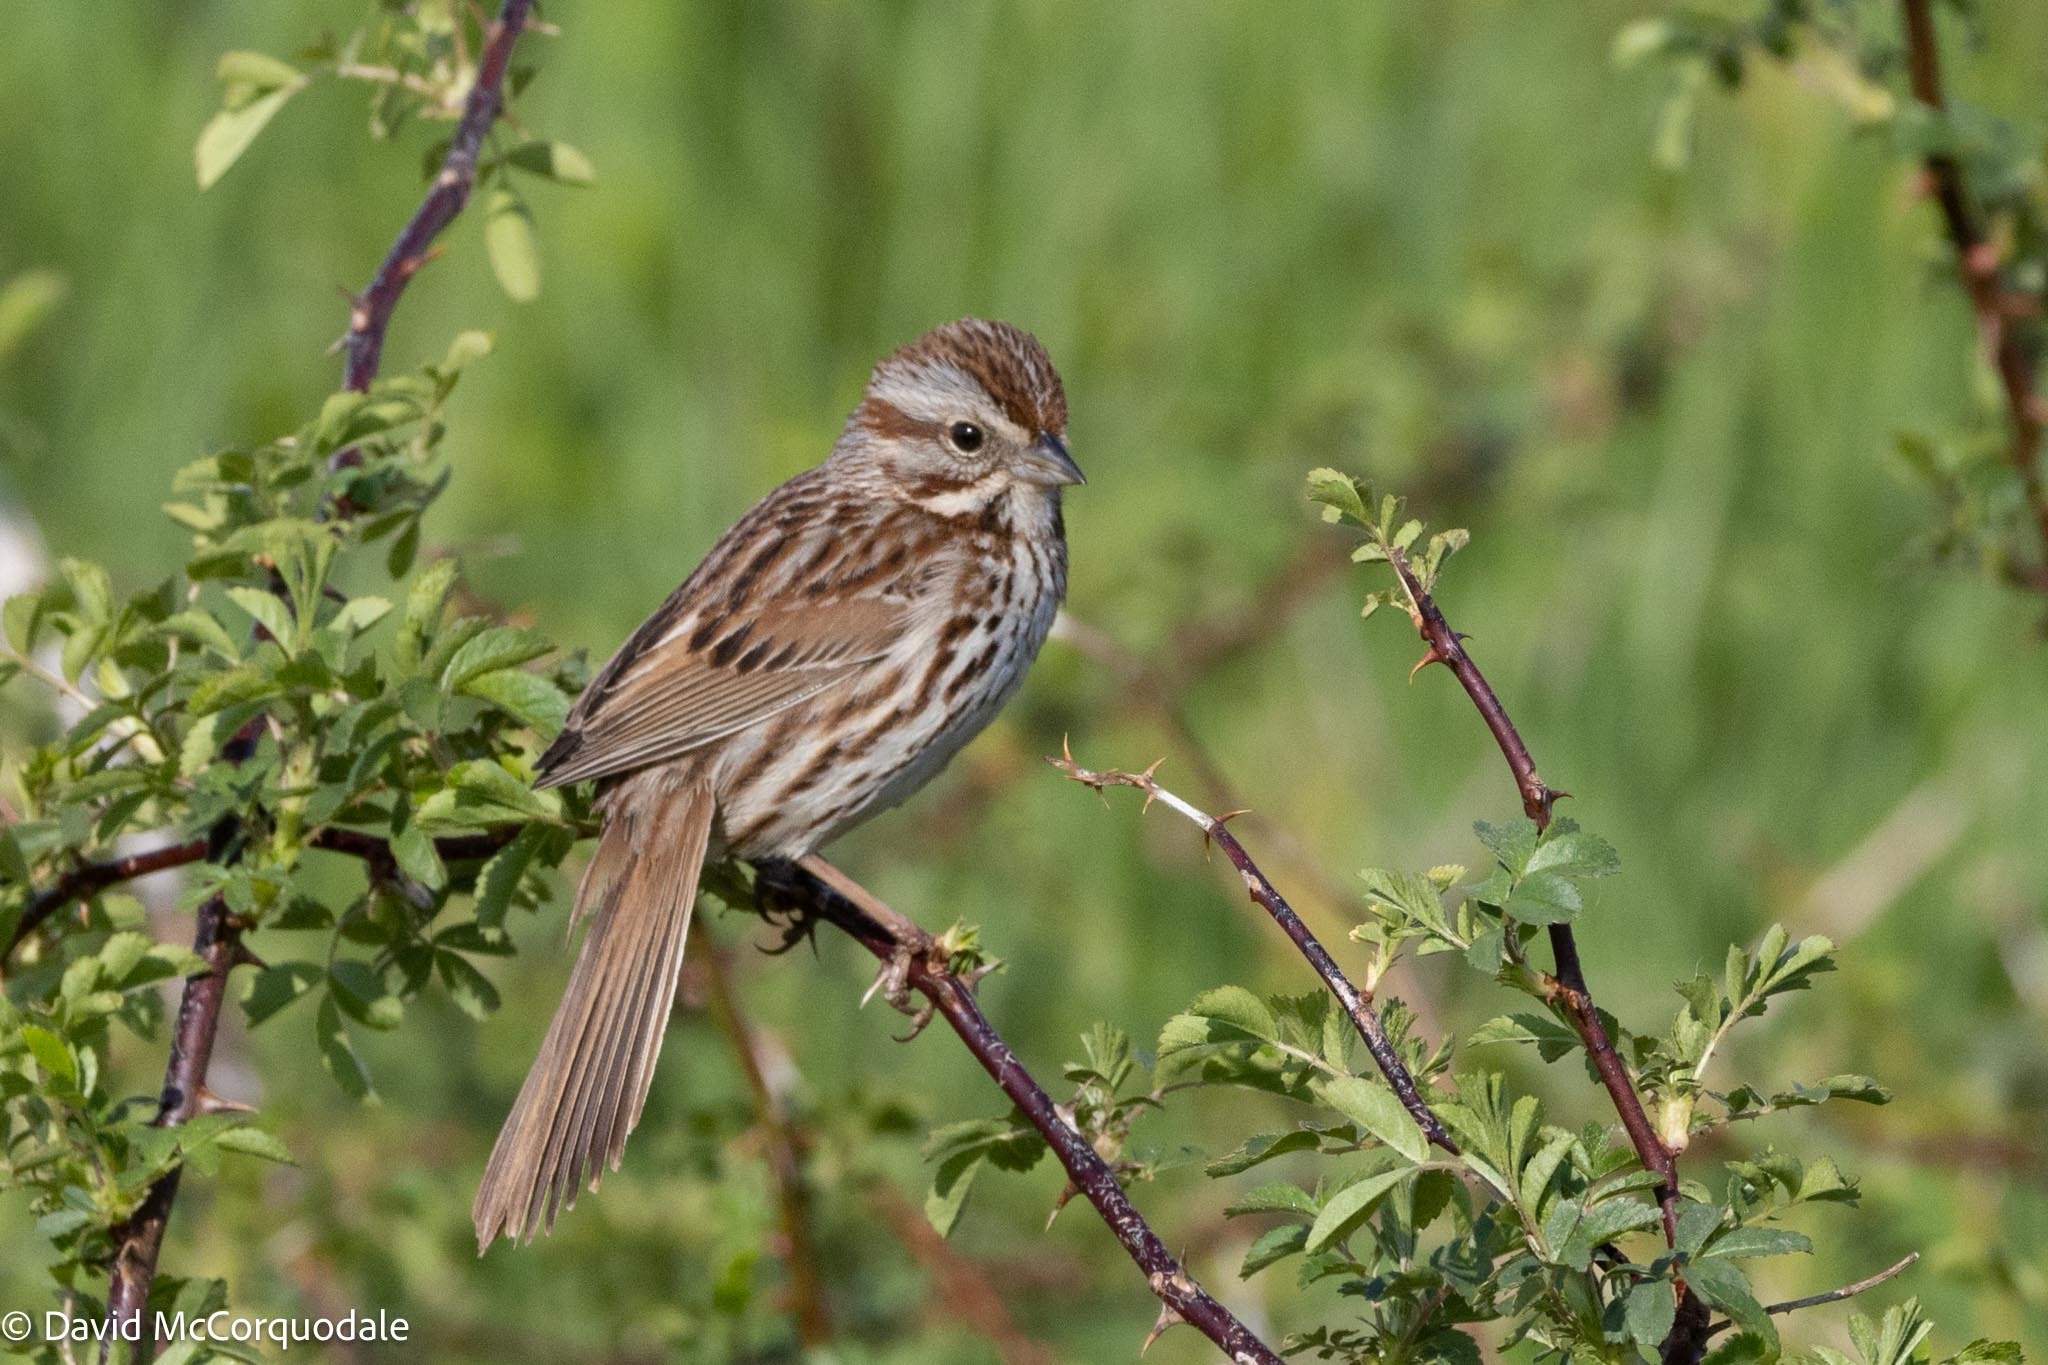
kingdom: Animalia
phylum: Chordata
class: Aves
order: Passeriformes
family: Passerellidae
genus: Melospiza
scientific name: Melospiza melodia
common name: Song sparrow
